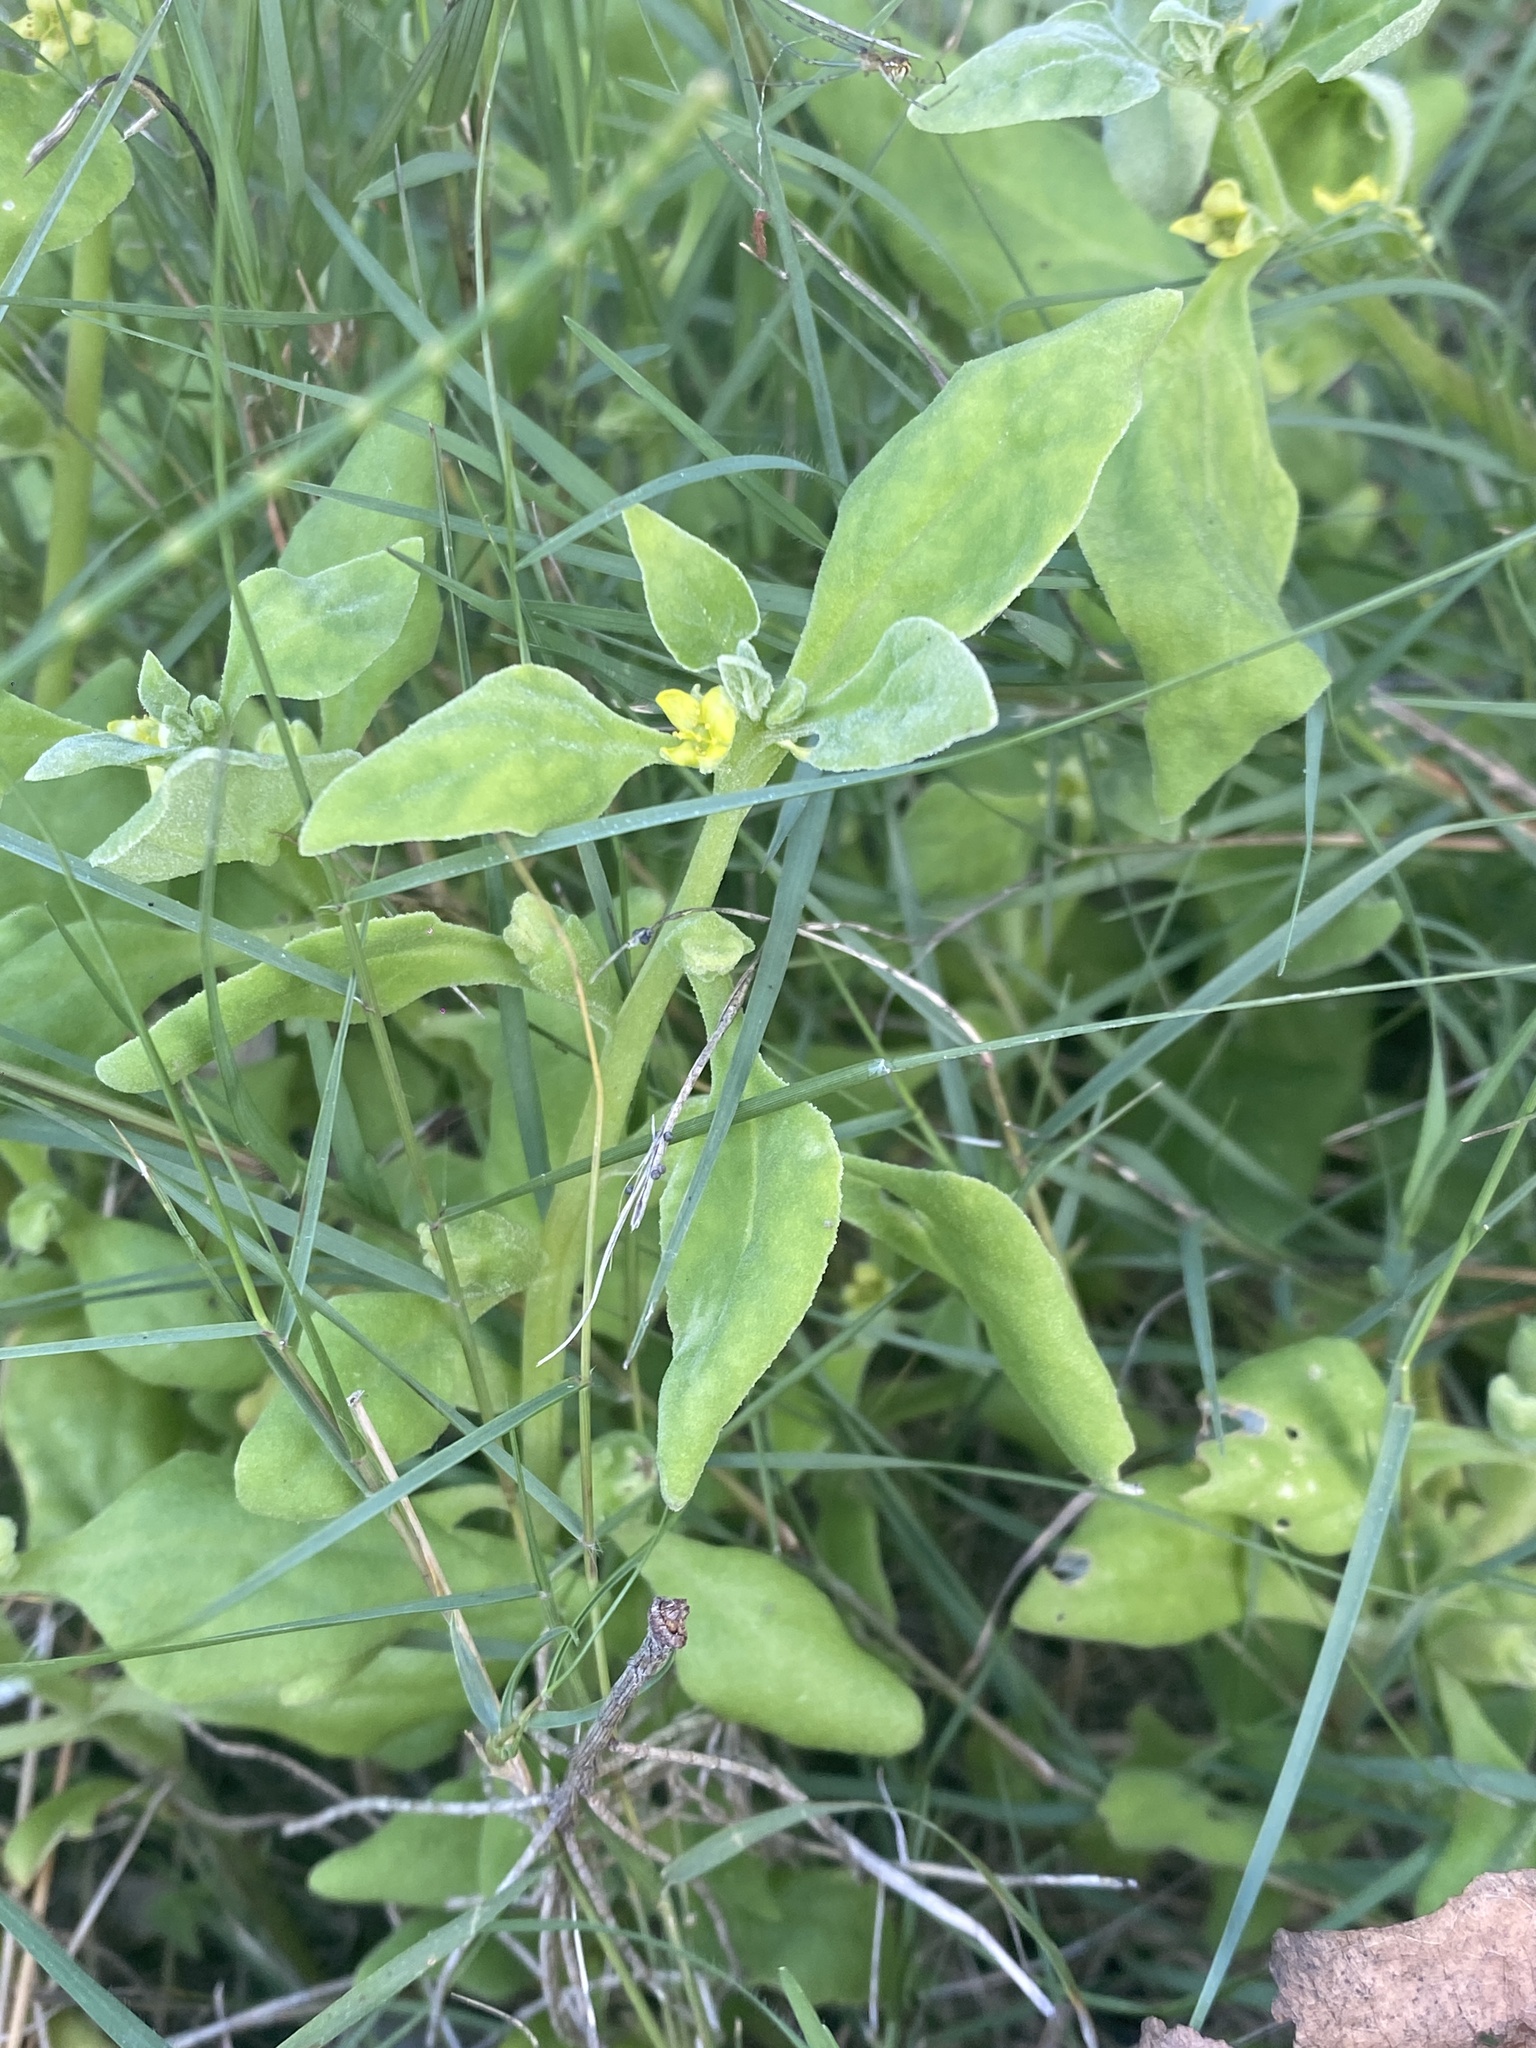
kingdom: Plantae
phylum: Tracheophyta
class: Magnoliopsida
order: Caryophyllales
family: Aizoaceae
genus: Tetragonia
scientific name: Tetragonia tetragonoides
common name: New zealand-spinach
